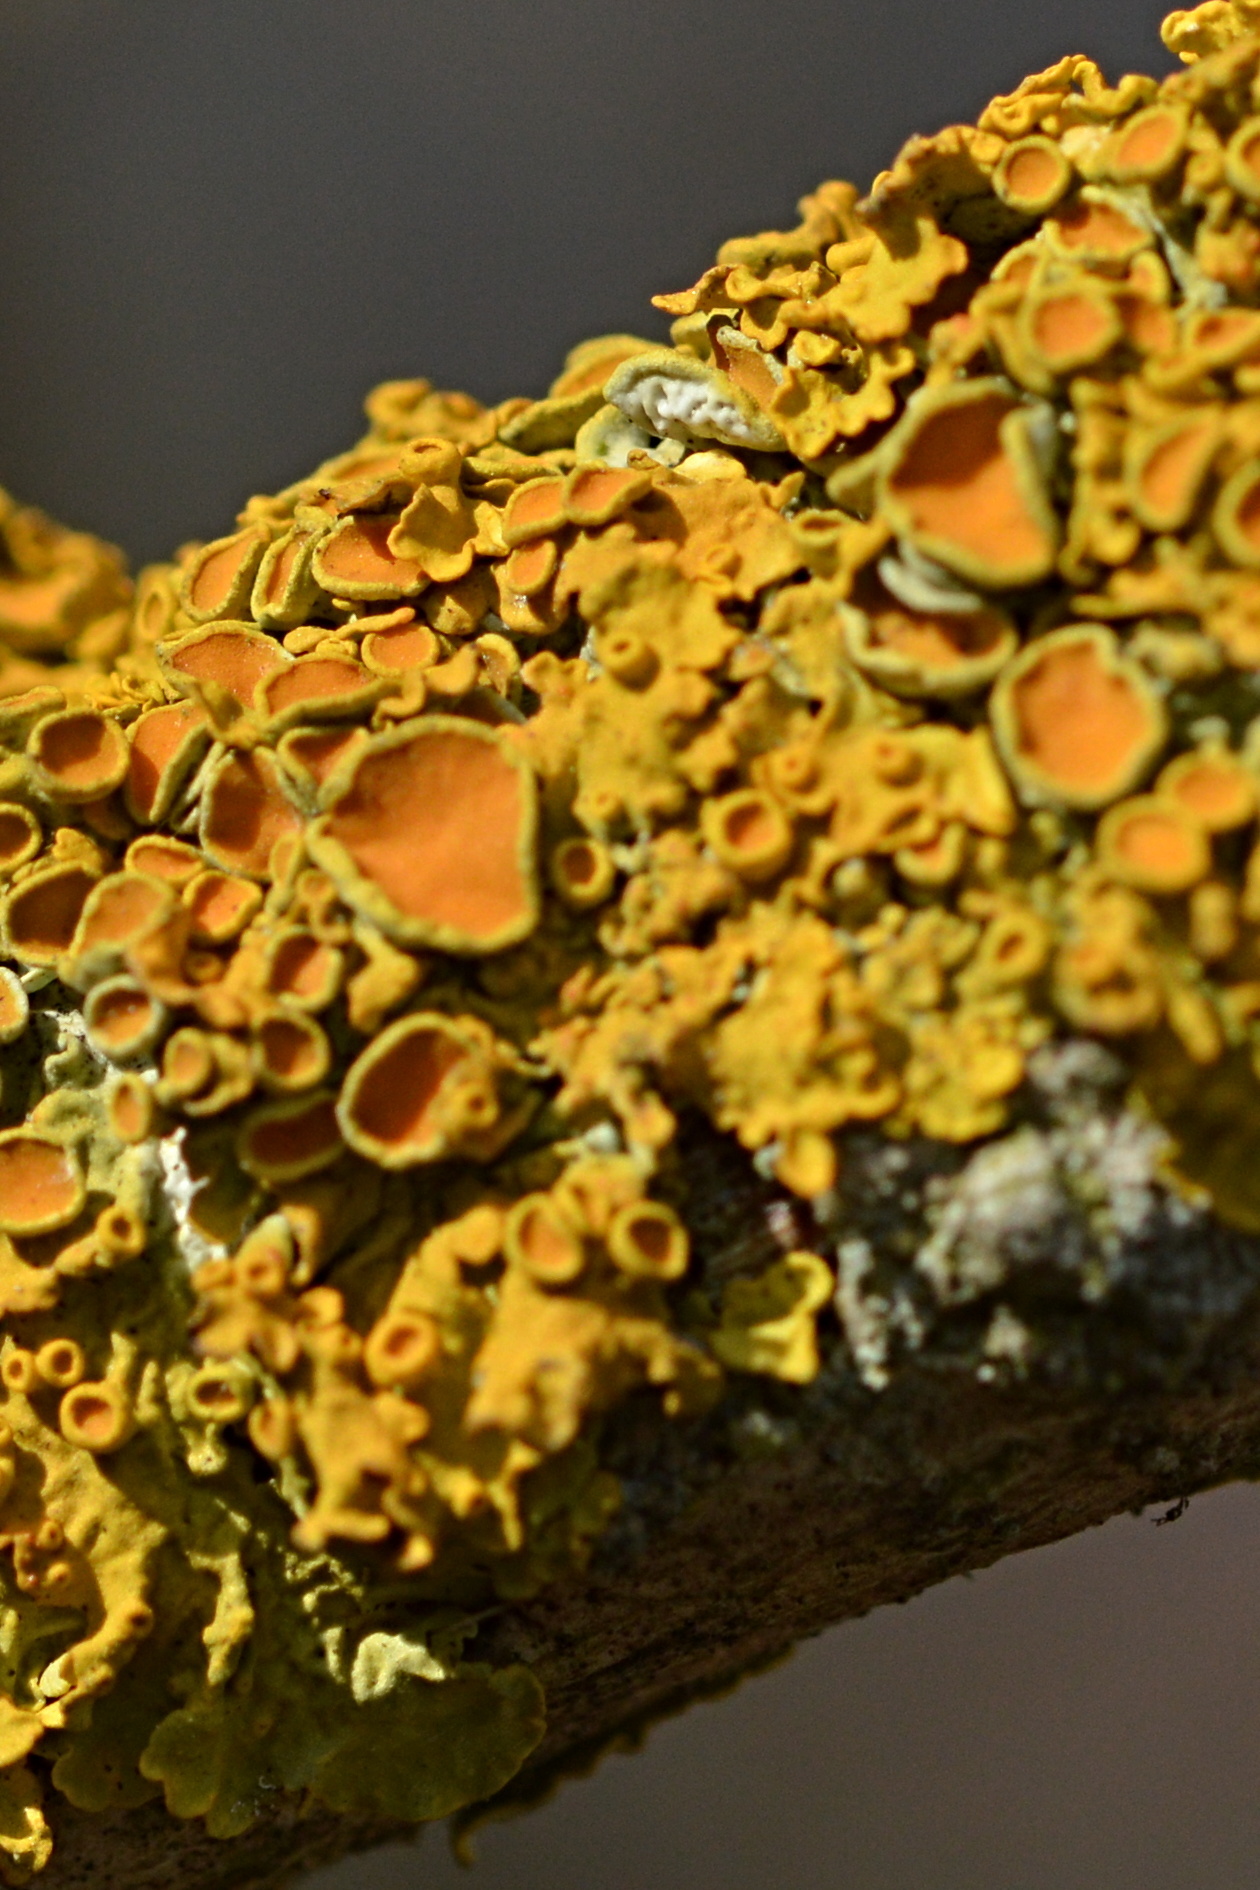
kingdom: Fungi
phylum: Ascomycota
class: Lecanoromycetes
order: Teloschistales
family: Teloschistaceae
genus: Xanthoria
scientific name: Xanthoria parietina
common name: Common orange lichen
